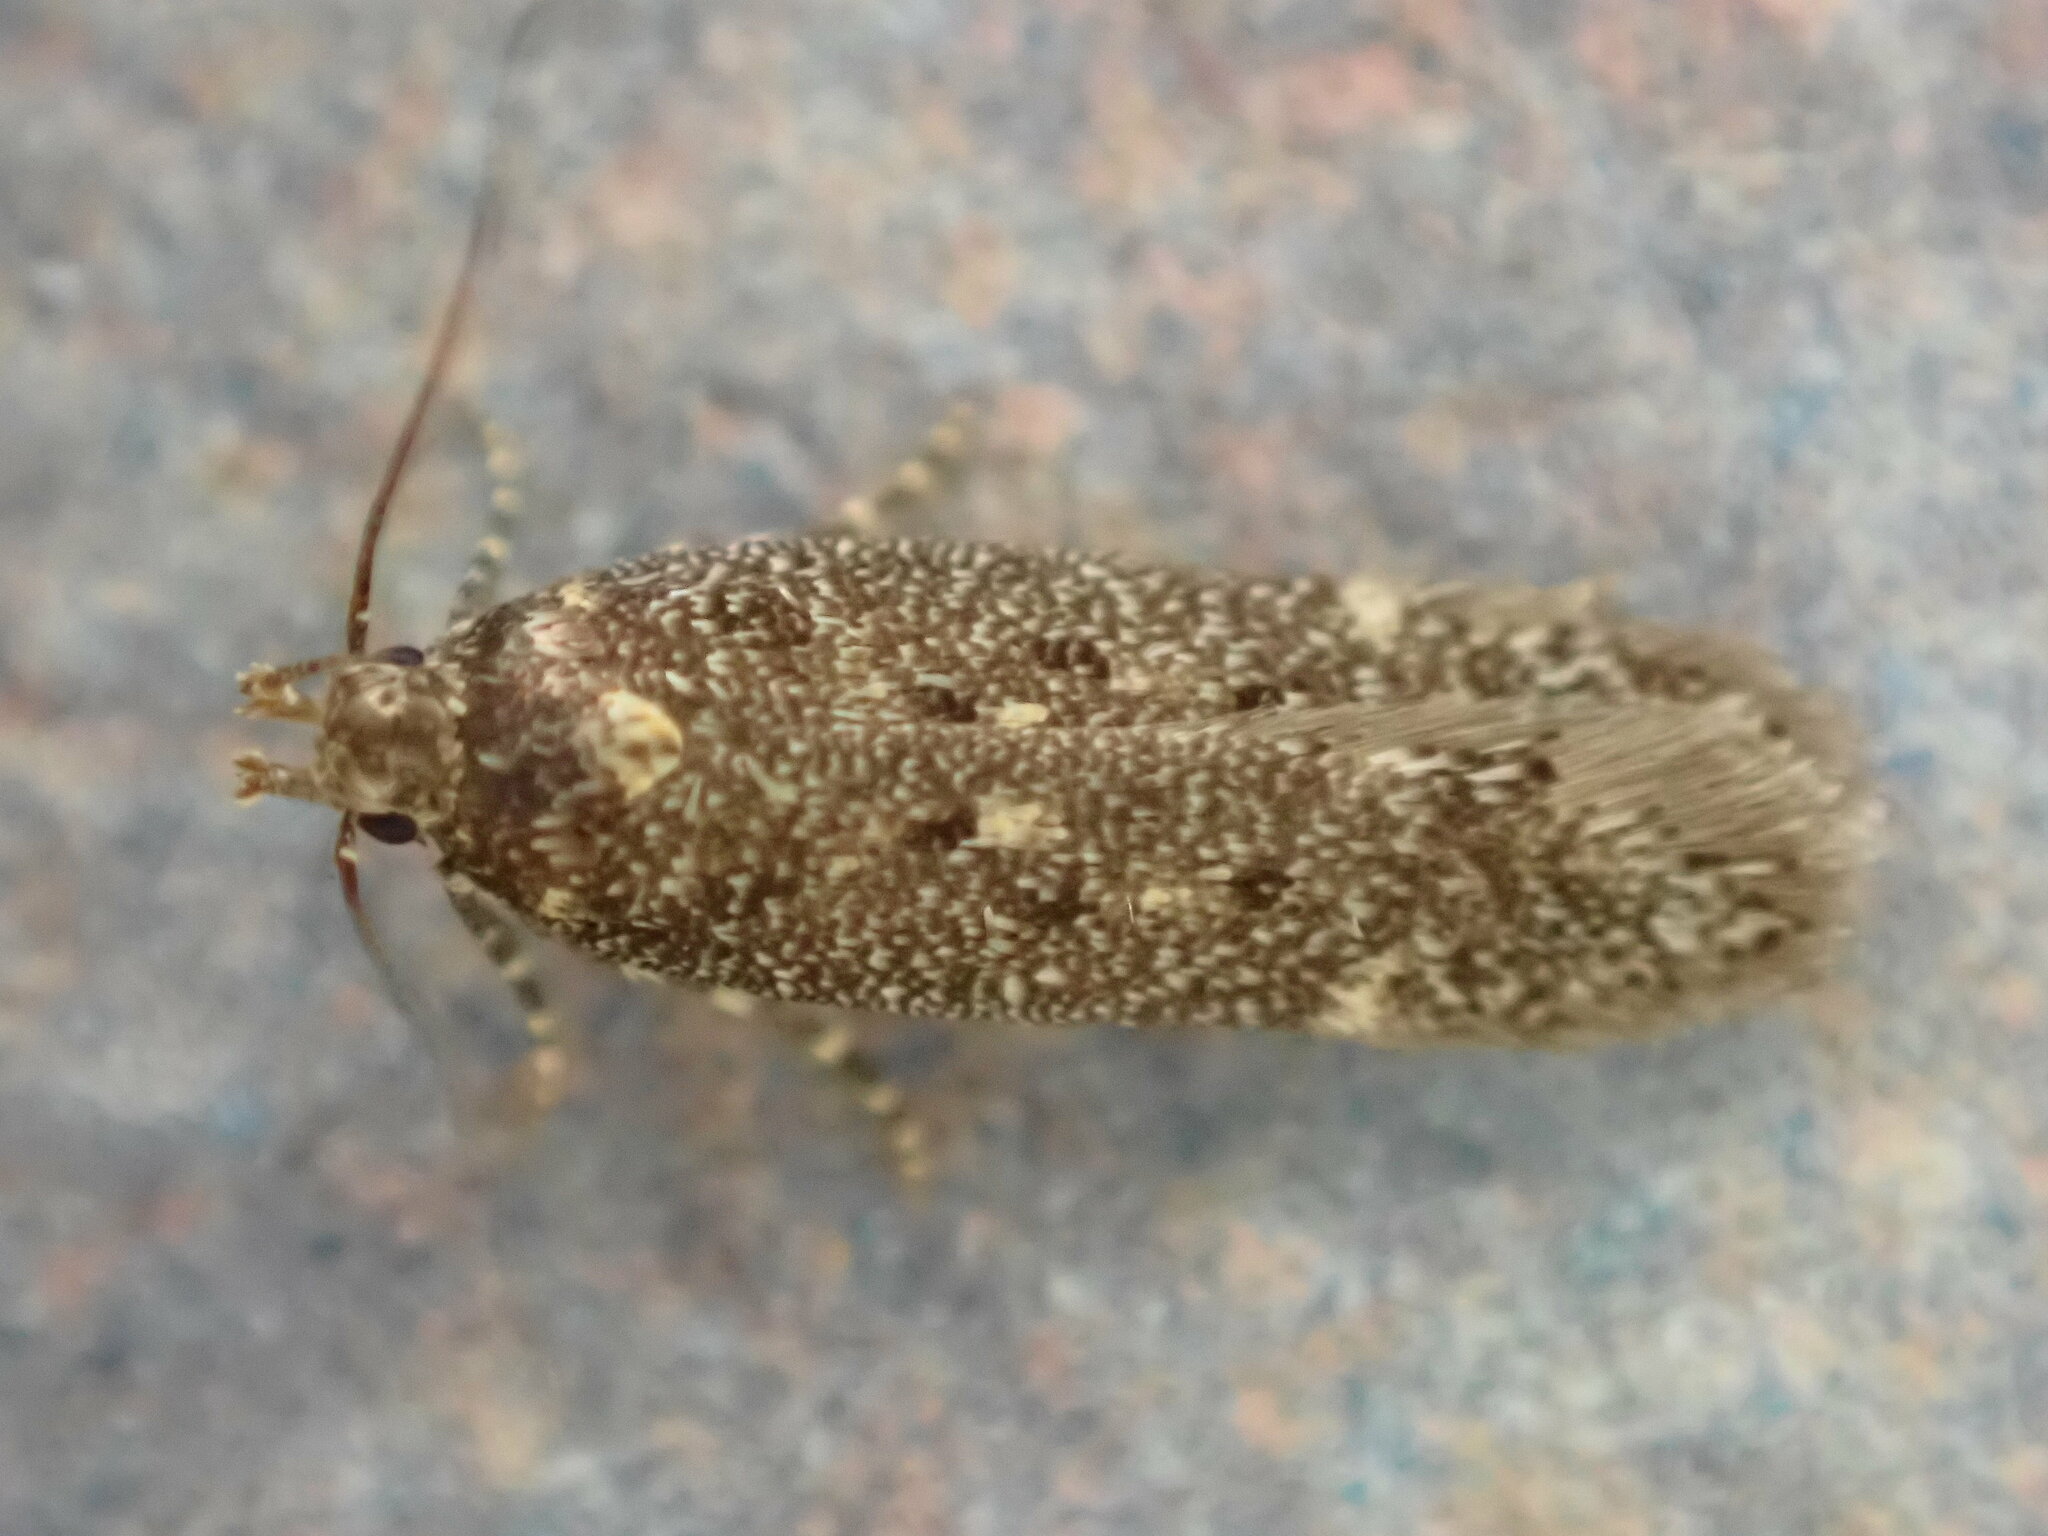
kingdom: Animalia
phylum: Arthropoda
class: Insecta
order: Lepidoptera
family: Gelechiidae
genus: Bryotropha
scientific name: Bryotropha affinis
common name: Dark groundling
